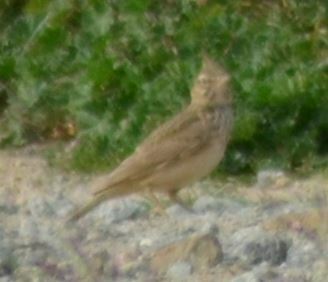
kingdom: Animalia
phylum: Chordata
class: Aves
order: Passeriformes
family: Alaudidae
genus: Galerida
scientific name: Galerida cristata
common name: Crested lark
